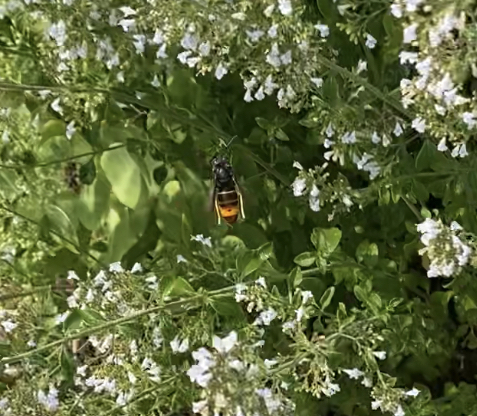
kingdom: Animalia
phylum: Arthropoda
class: Insecta
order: Hymenoptera
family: Vespidae
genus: Vespa
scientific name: Vespa velutina
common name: Asian hornet
